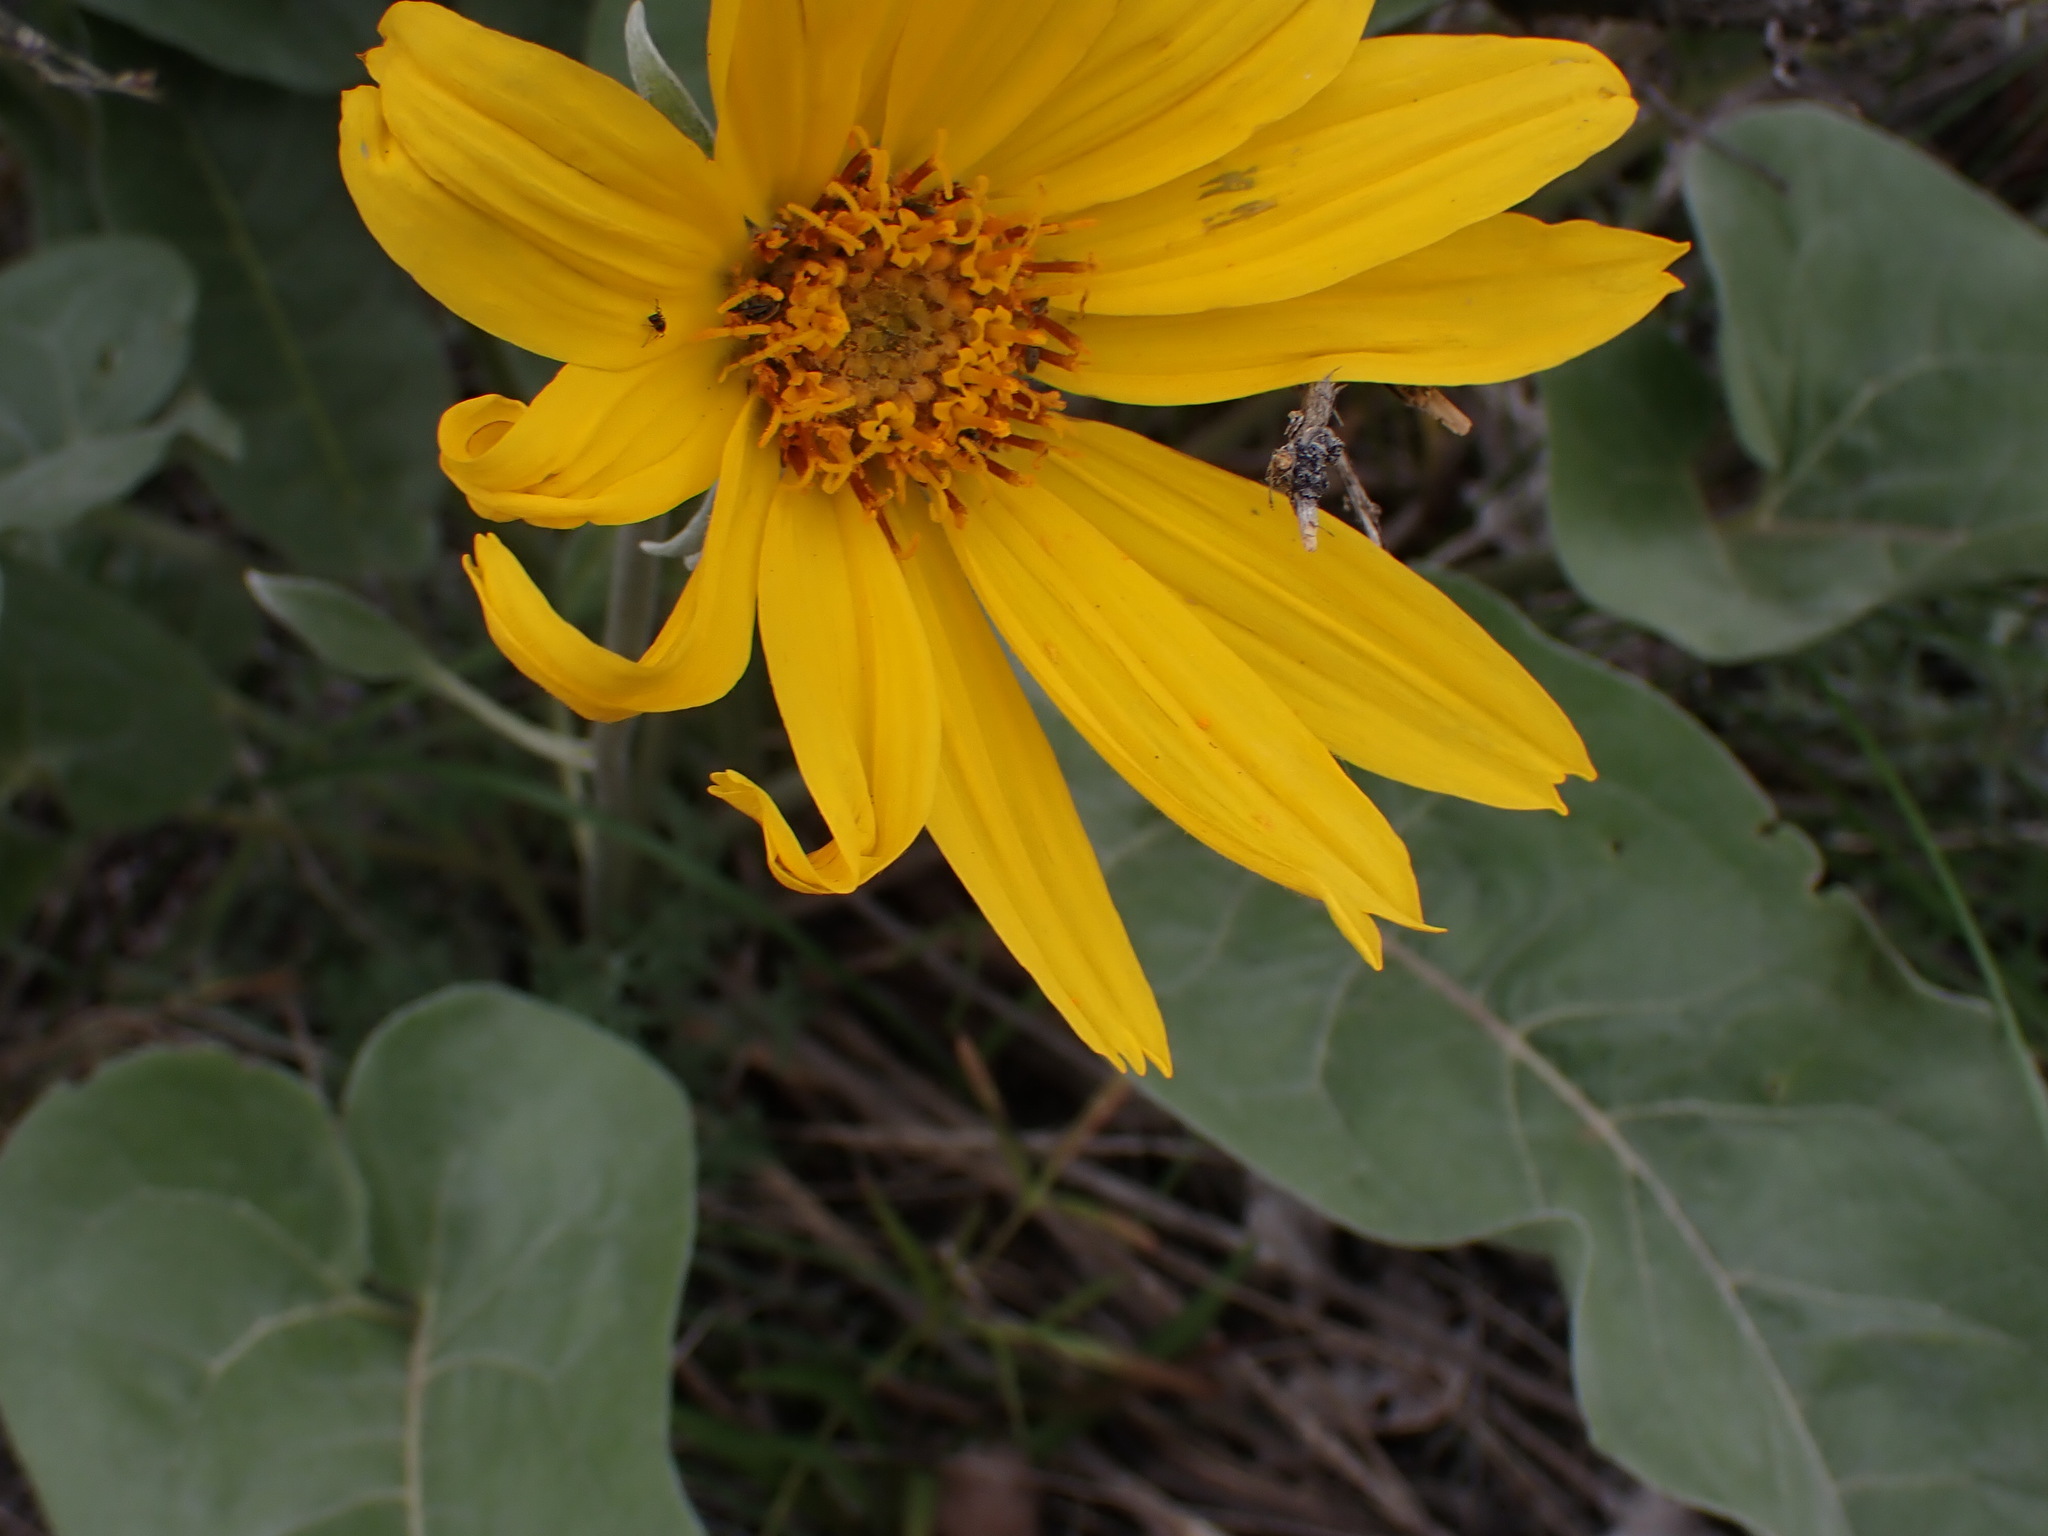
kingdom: Plantae
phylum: Tracheophyta
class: Magnoliopsida
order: Asterales
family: Asteraceae
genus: Wyethia
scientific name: Wyethia sagittata
